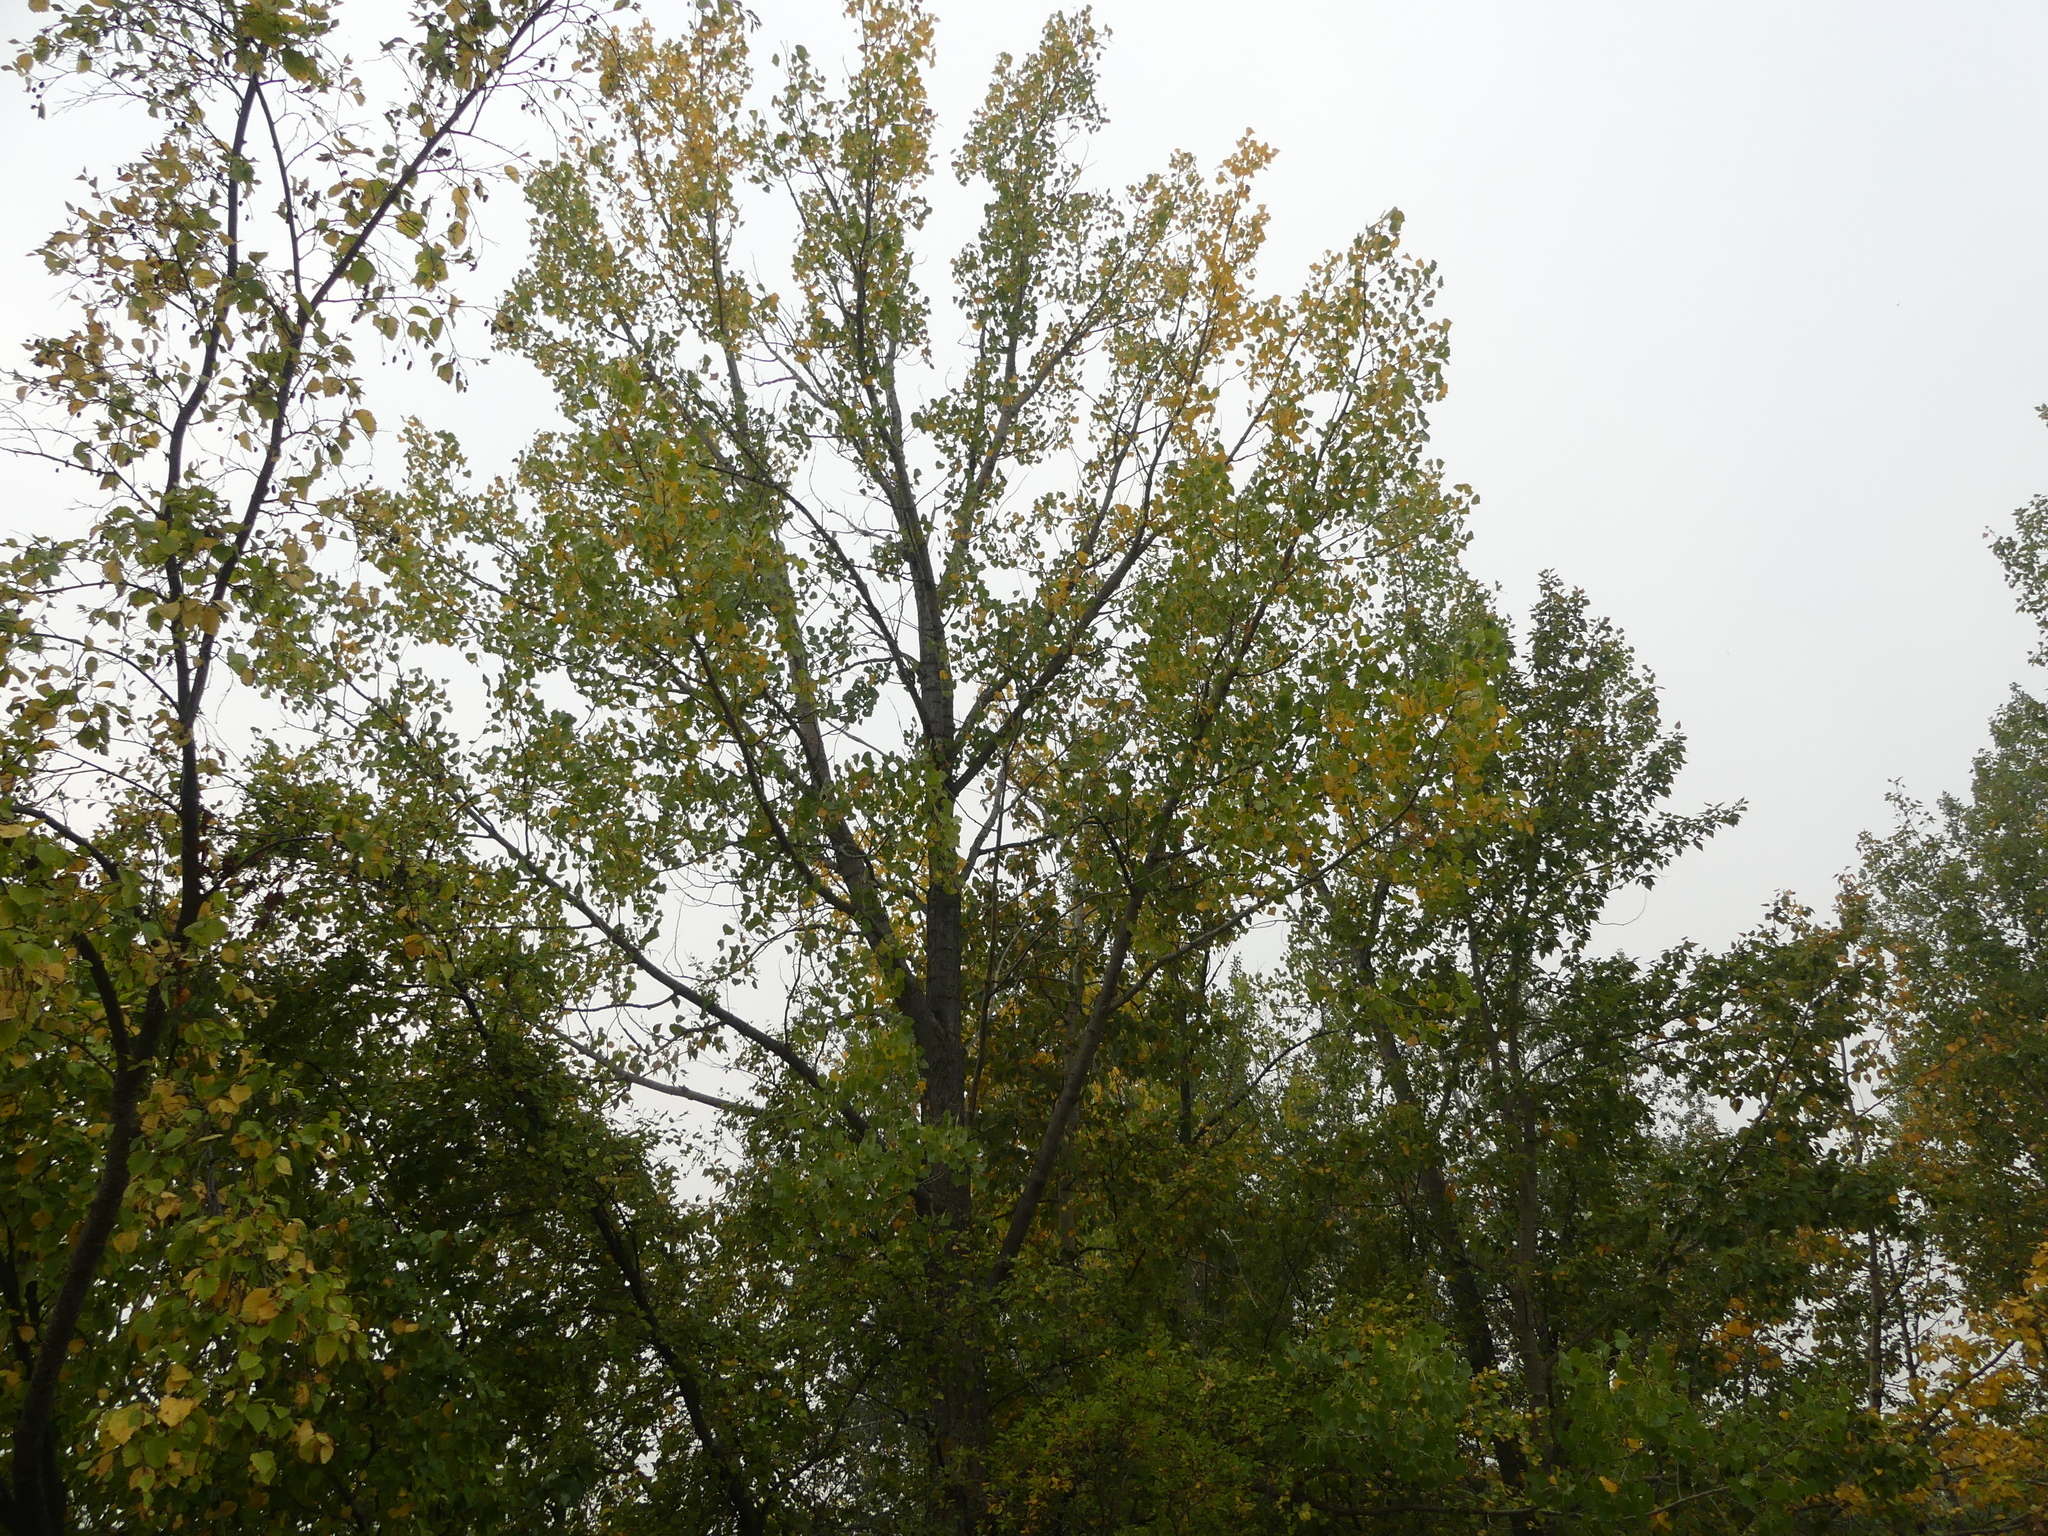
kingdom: Plantae
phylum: Tracheophyta
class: Magnoliopsida
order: Malpighiales
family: Salicaceae
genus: Populus
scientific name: Populus deltoides
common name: Eastern cottonwood
